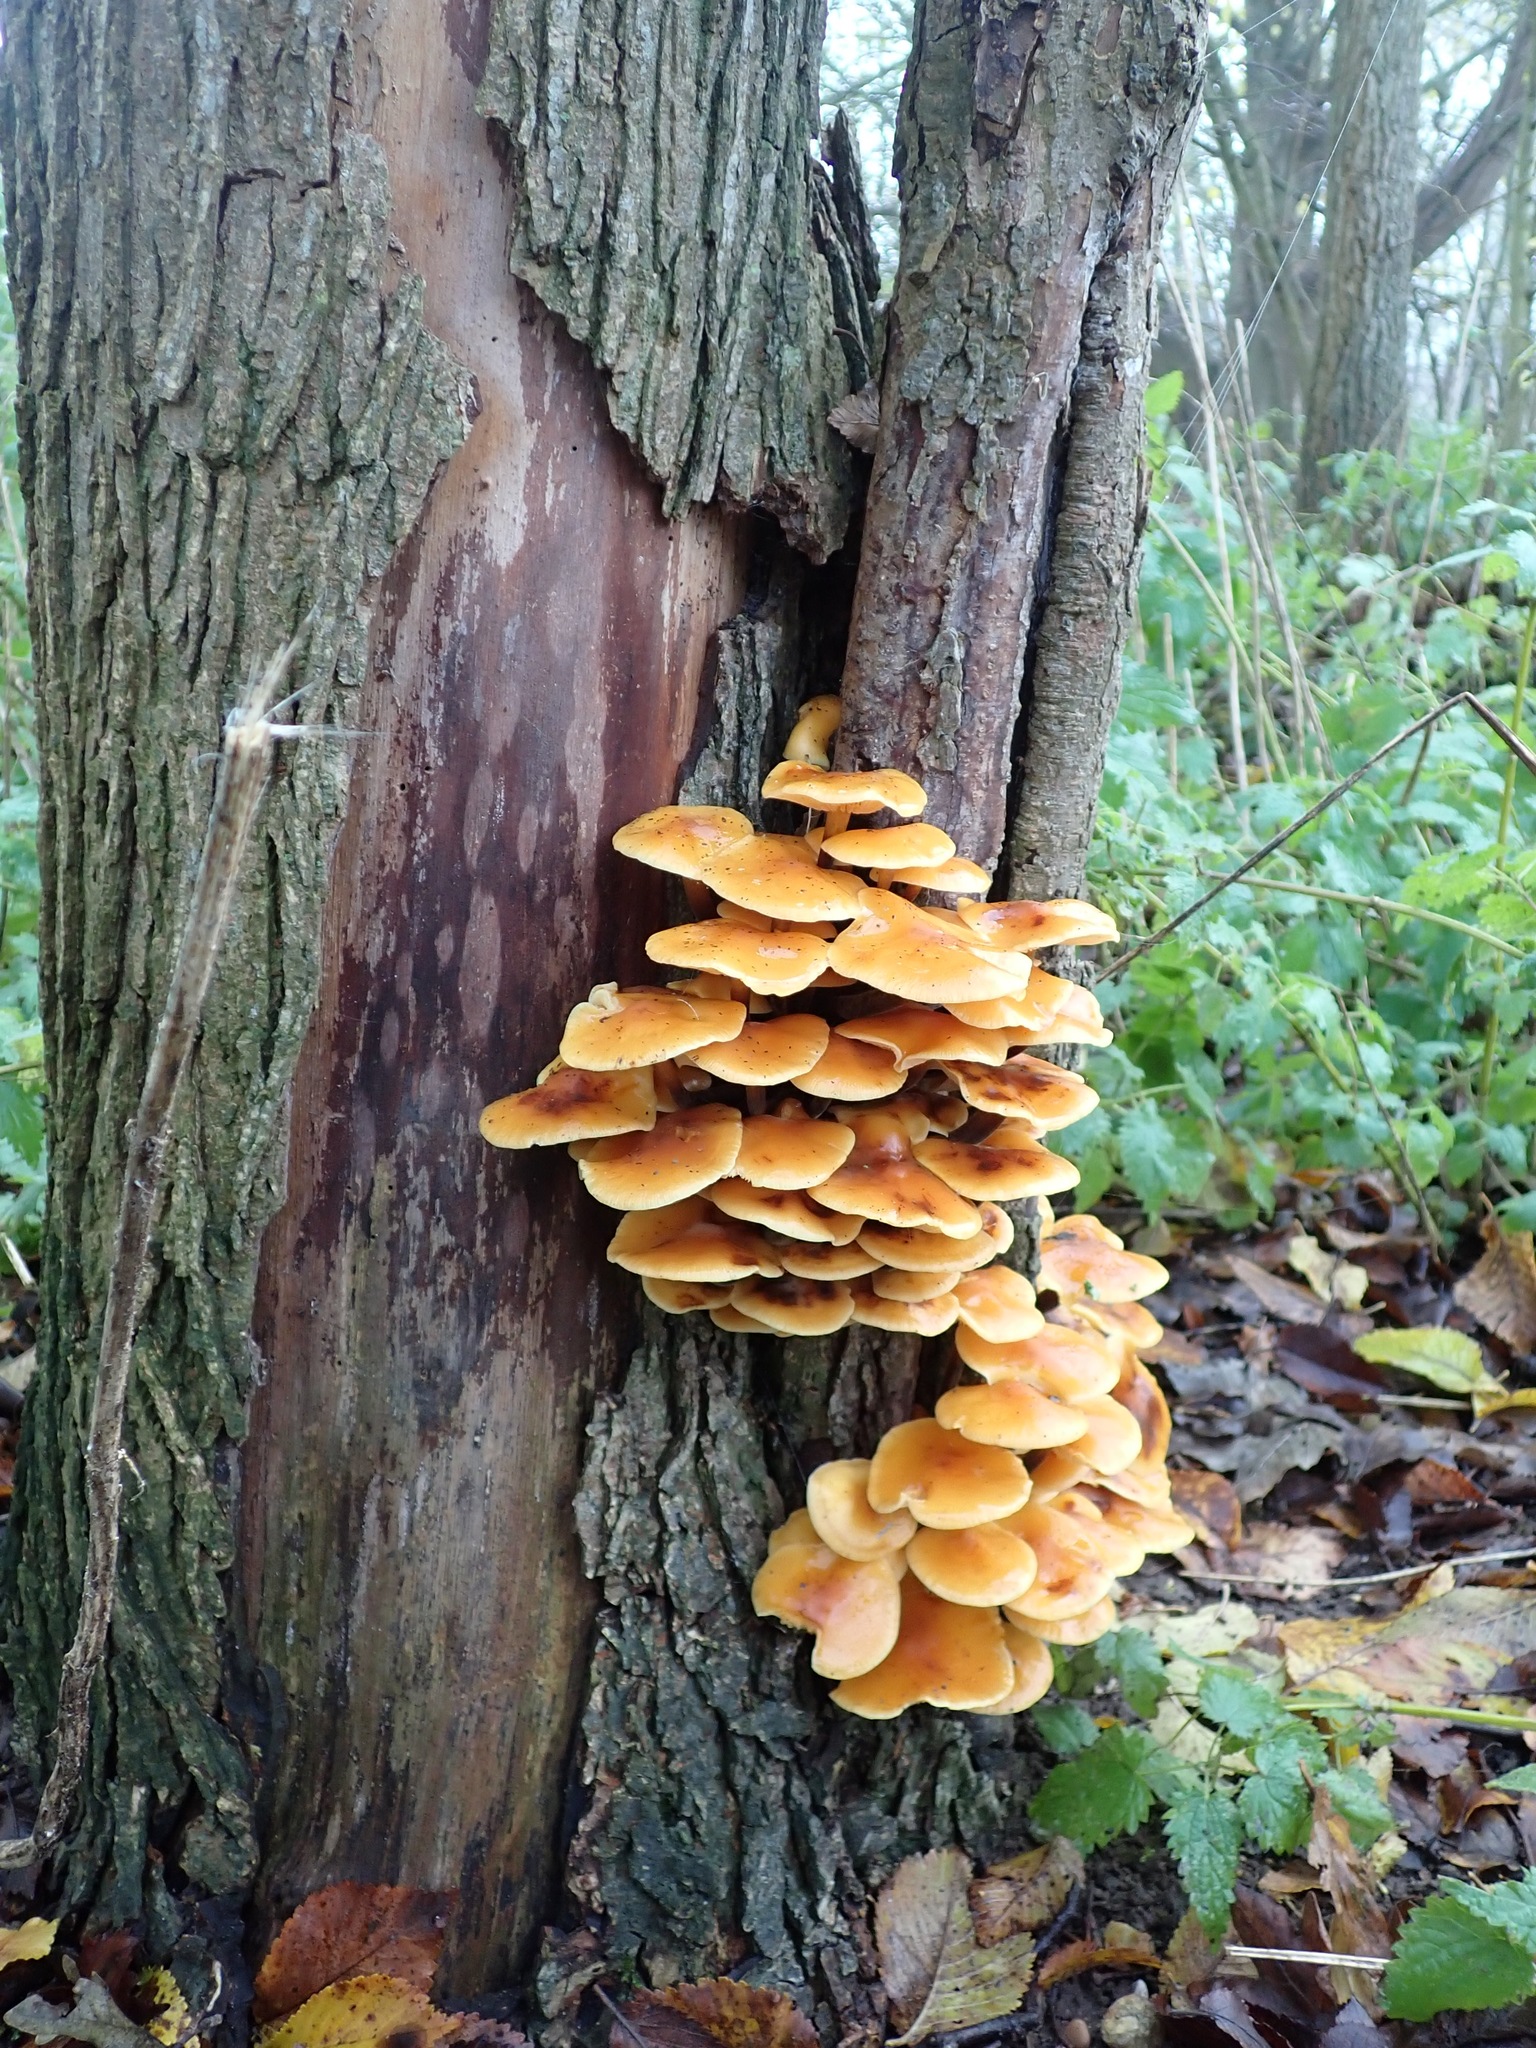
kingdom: Fungi
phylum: Basidiomycota
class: Agaricomycetes
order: Agaricales
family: Physalacriaceae
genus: Flammulina
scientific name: Flammulina
